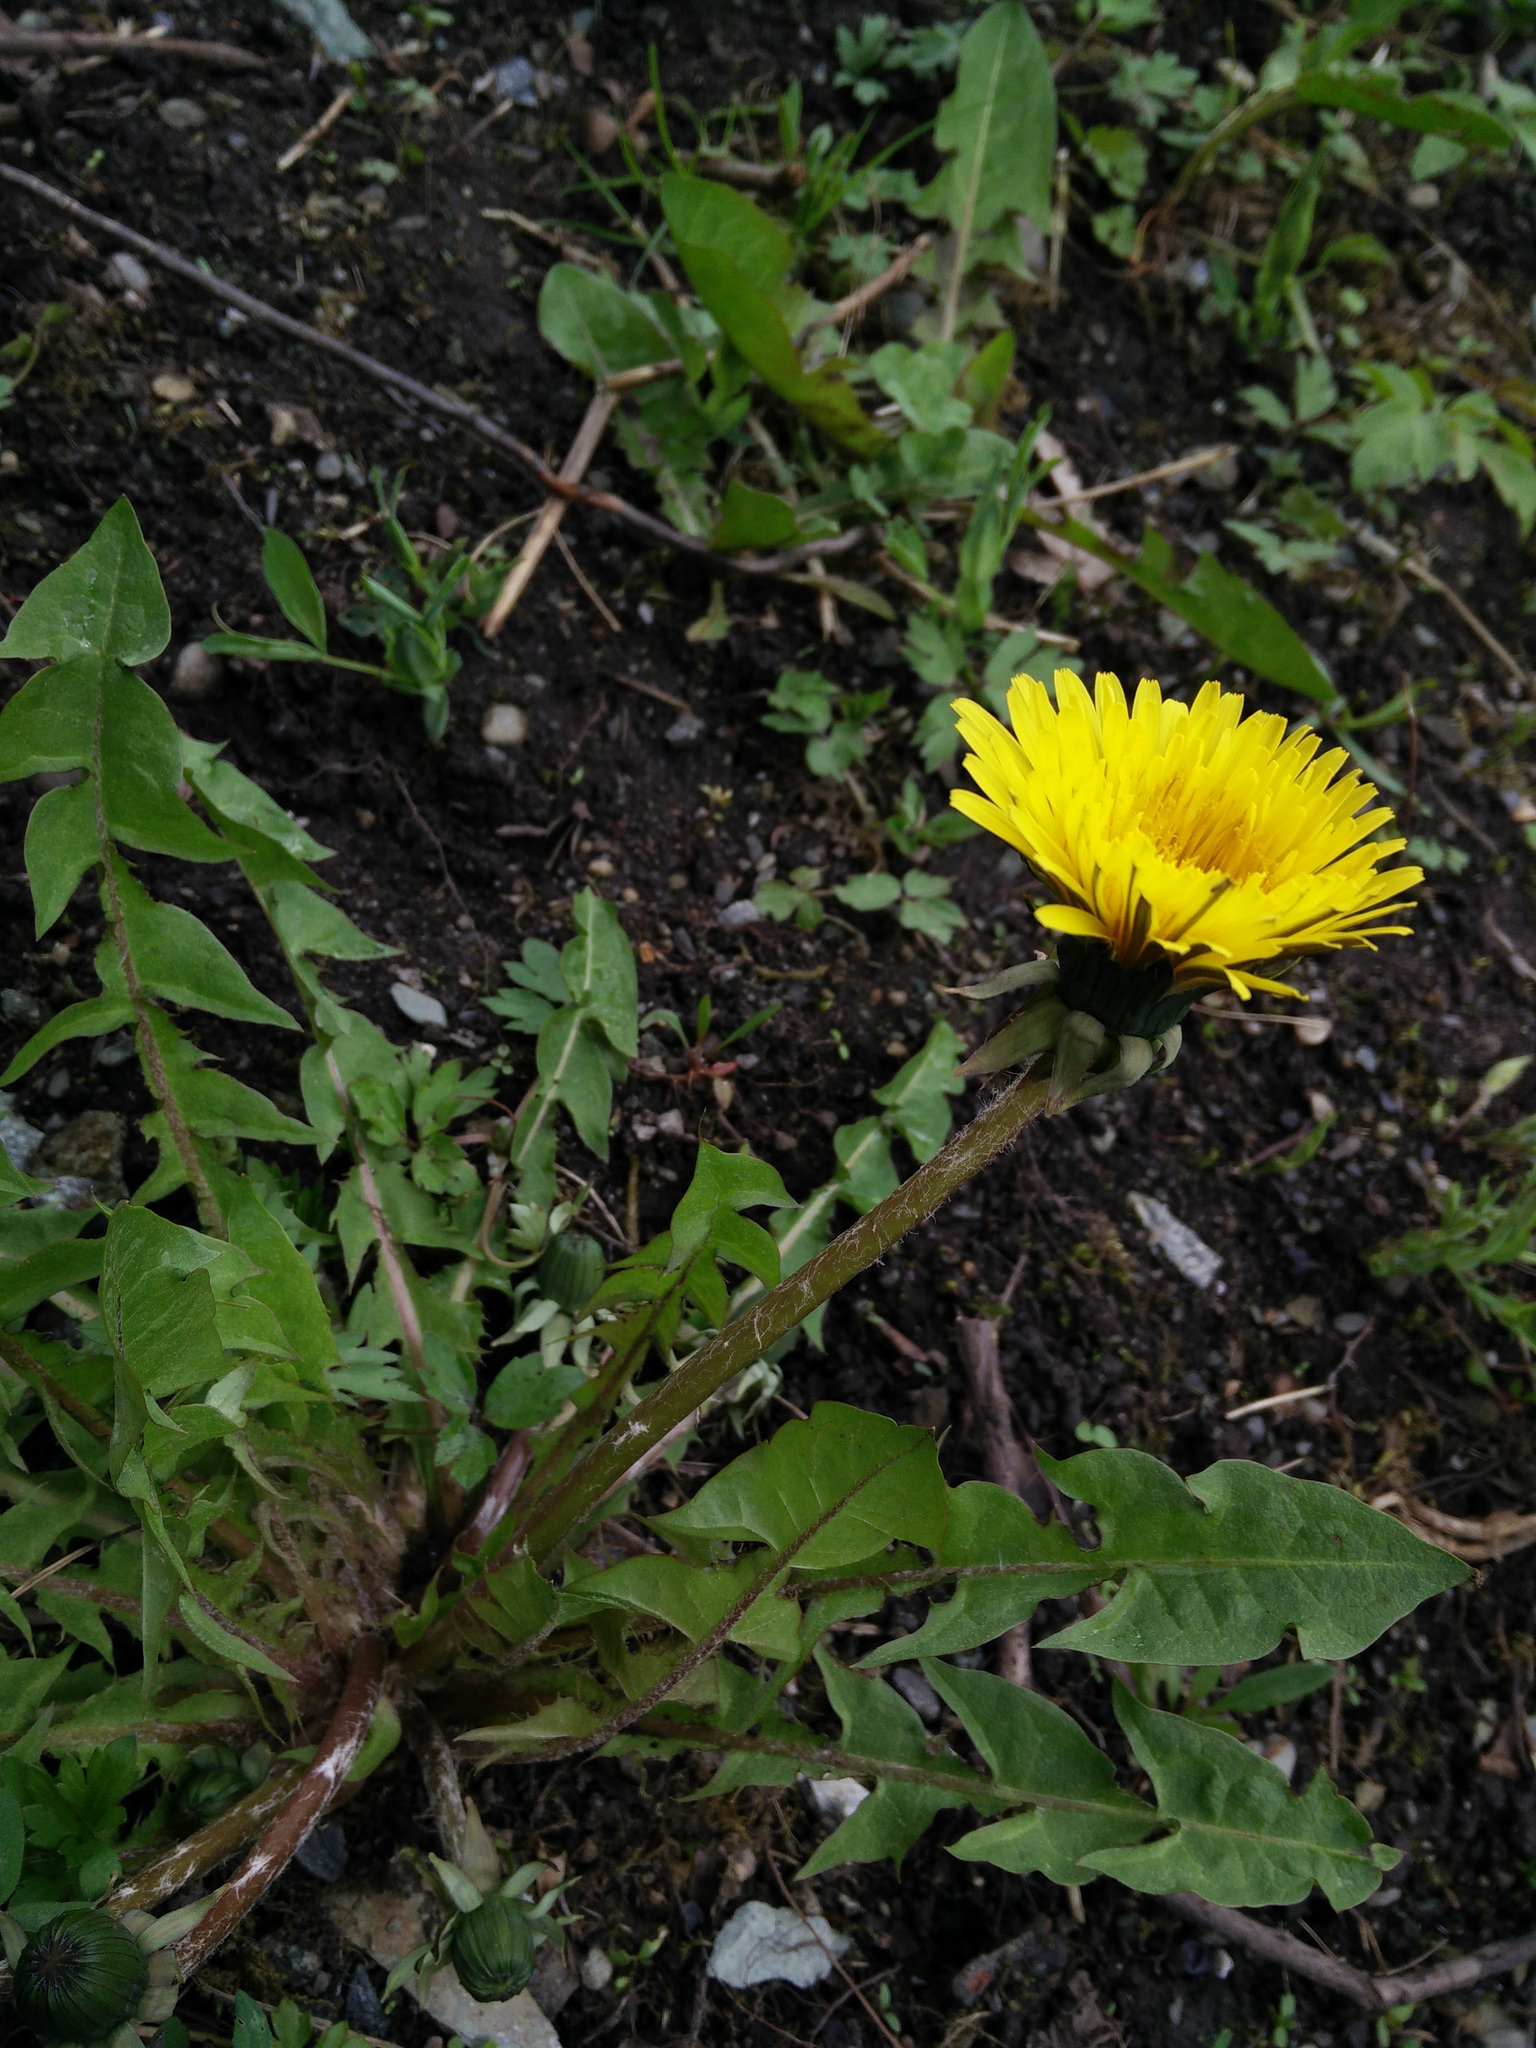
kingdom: Plantae
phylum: Tracheophyta
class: Magnoliopsida
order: Asterales
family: Asteraceae
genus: Taraxacum
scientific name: Taraxacum officinale
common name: Common dandelion
